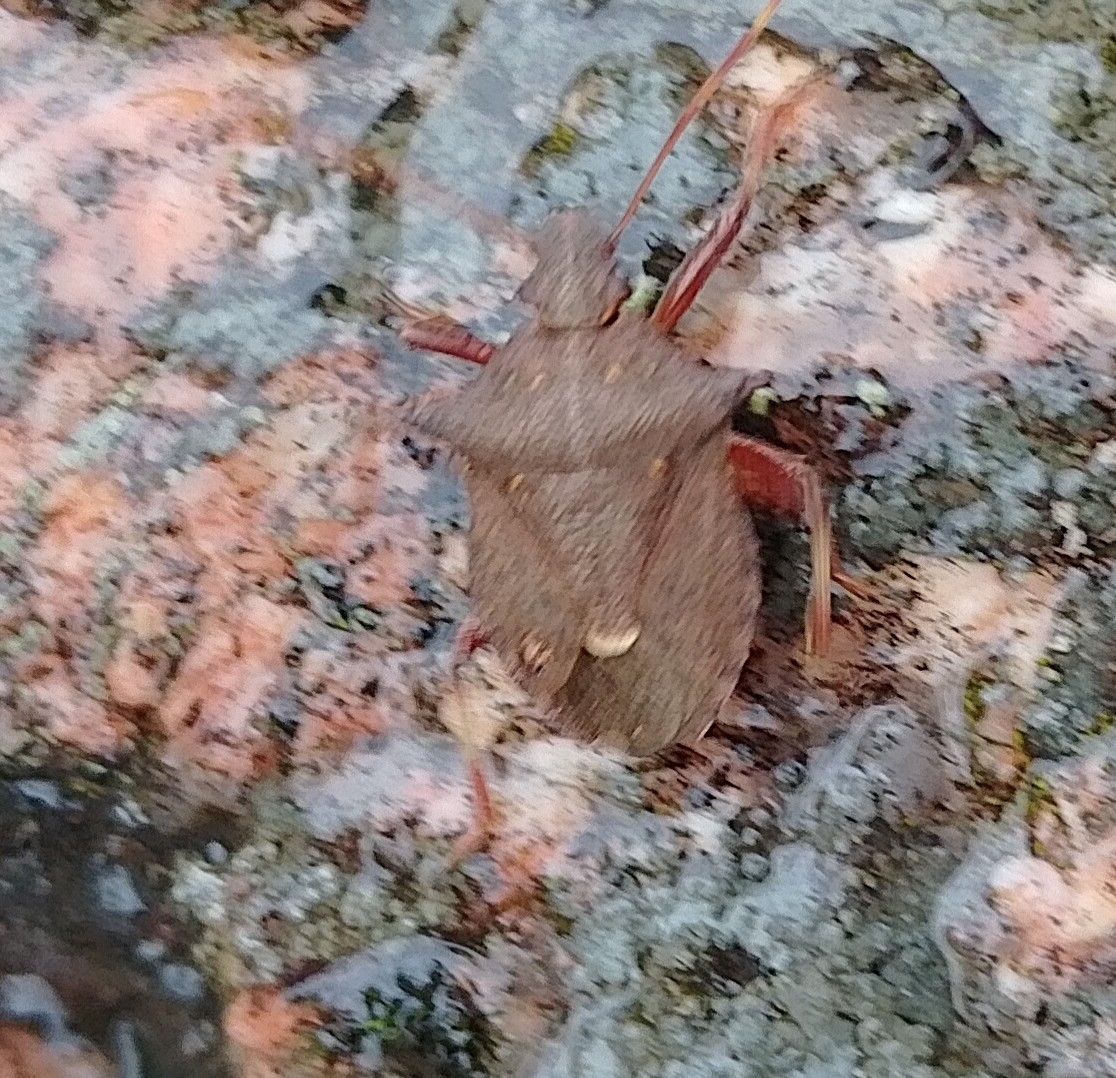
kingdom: Animalia
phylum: Arthropoda
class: Insecta
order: Hemiptera
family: Pentatomidae
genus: Picromerus
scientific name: Picromerus bidens
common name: Spiked shieldbug
